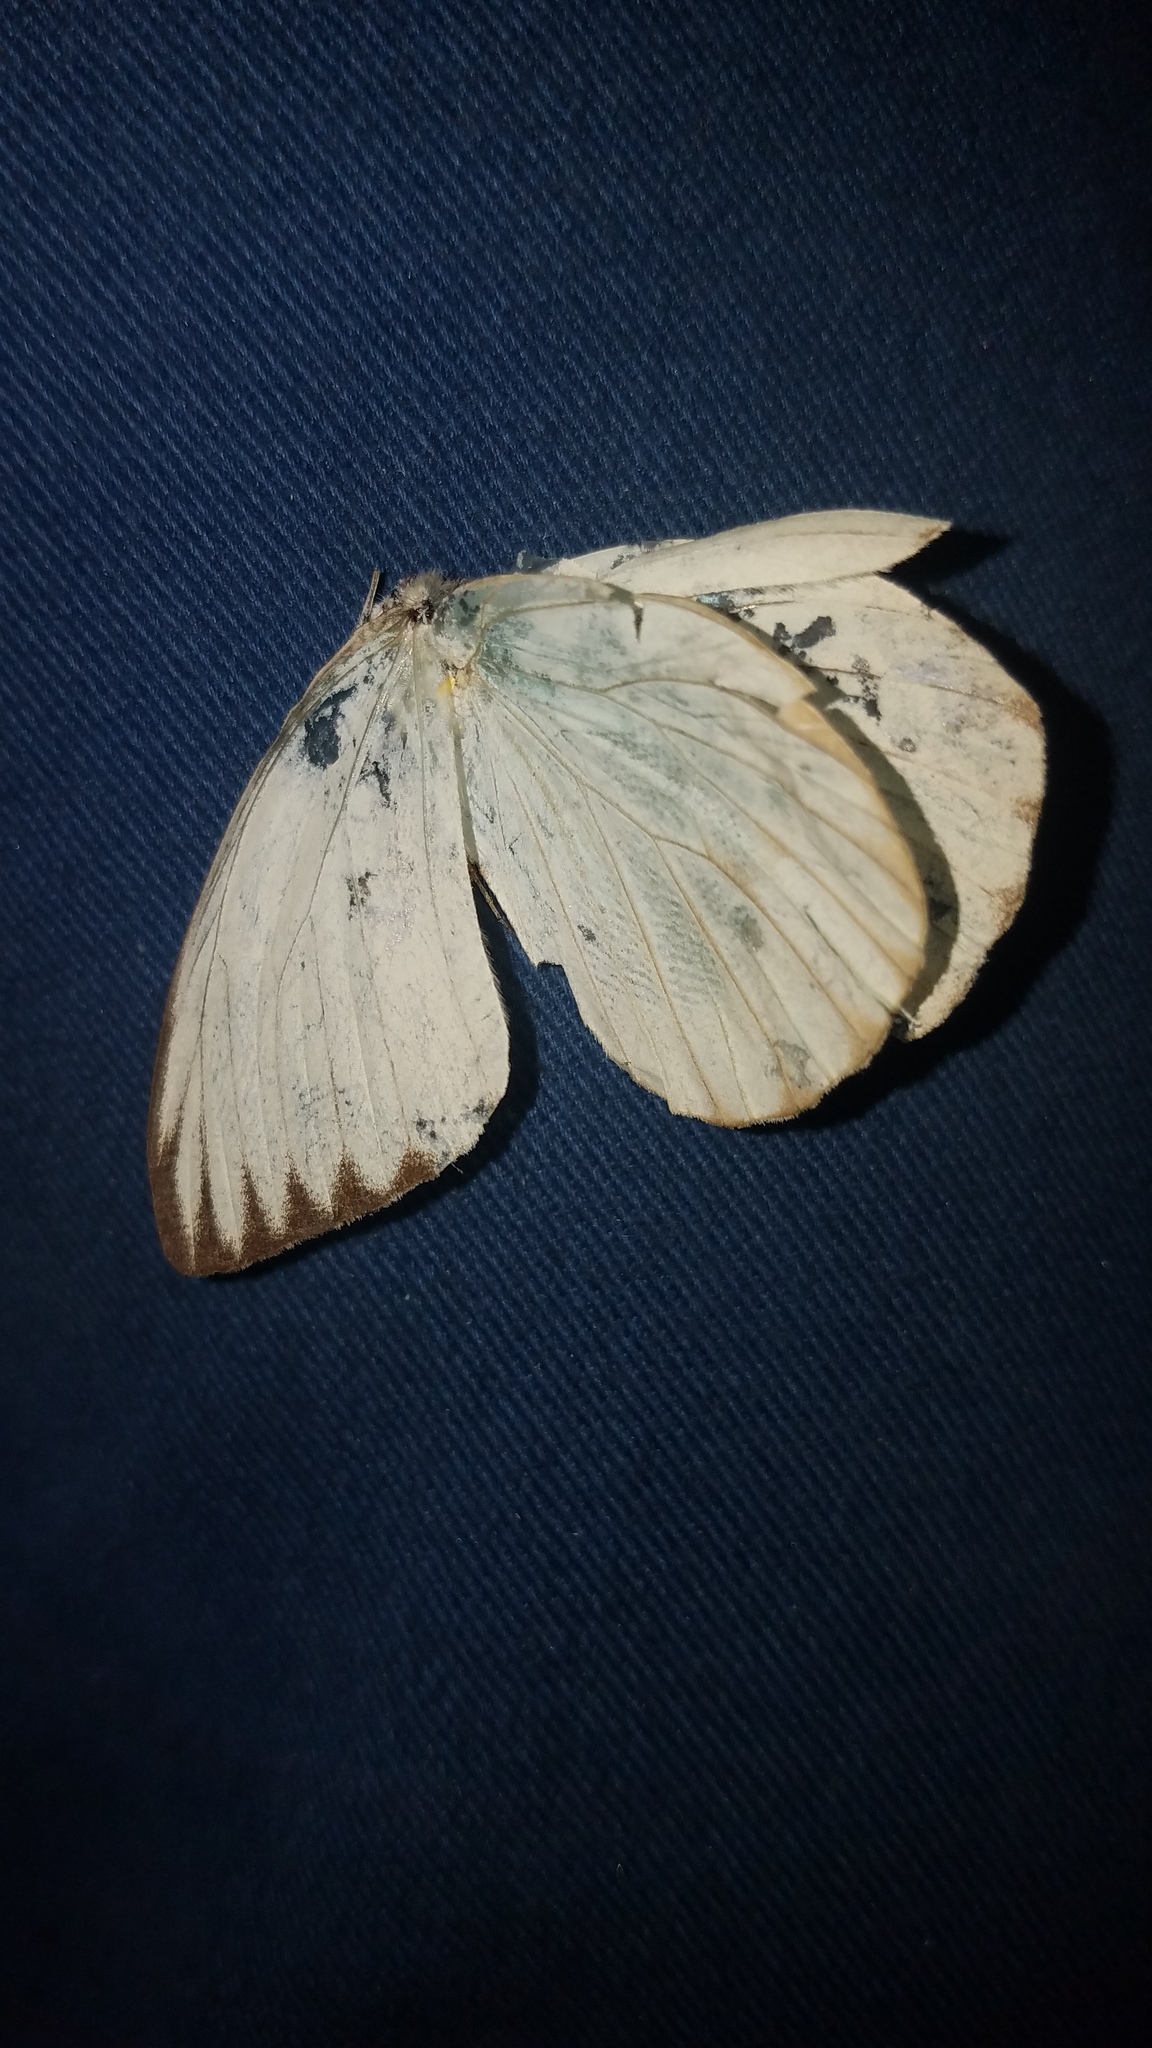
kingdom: Animalia
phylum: Arthropoda
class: Insecta
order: Lepidoptera
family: Pieridae
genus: Ascia
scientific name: Ascia monuste
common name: Great southern white
